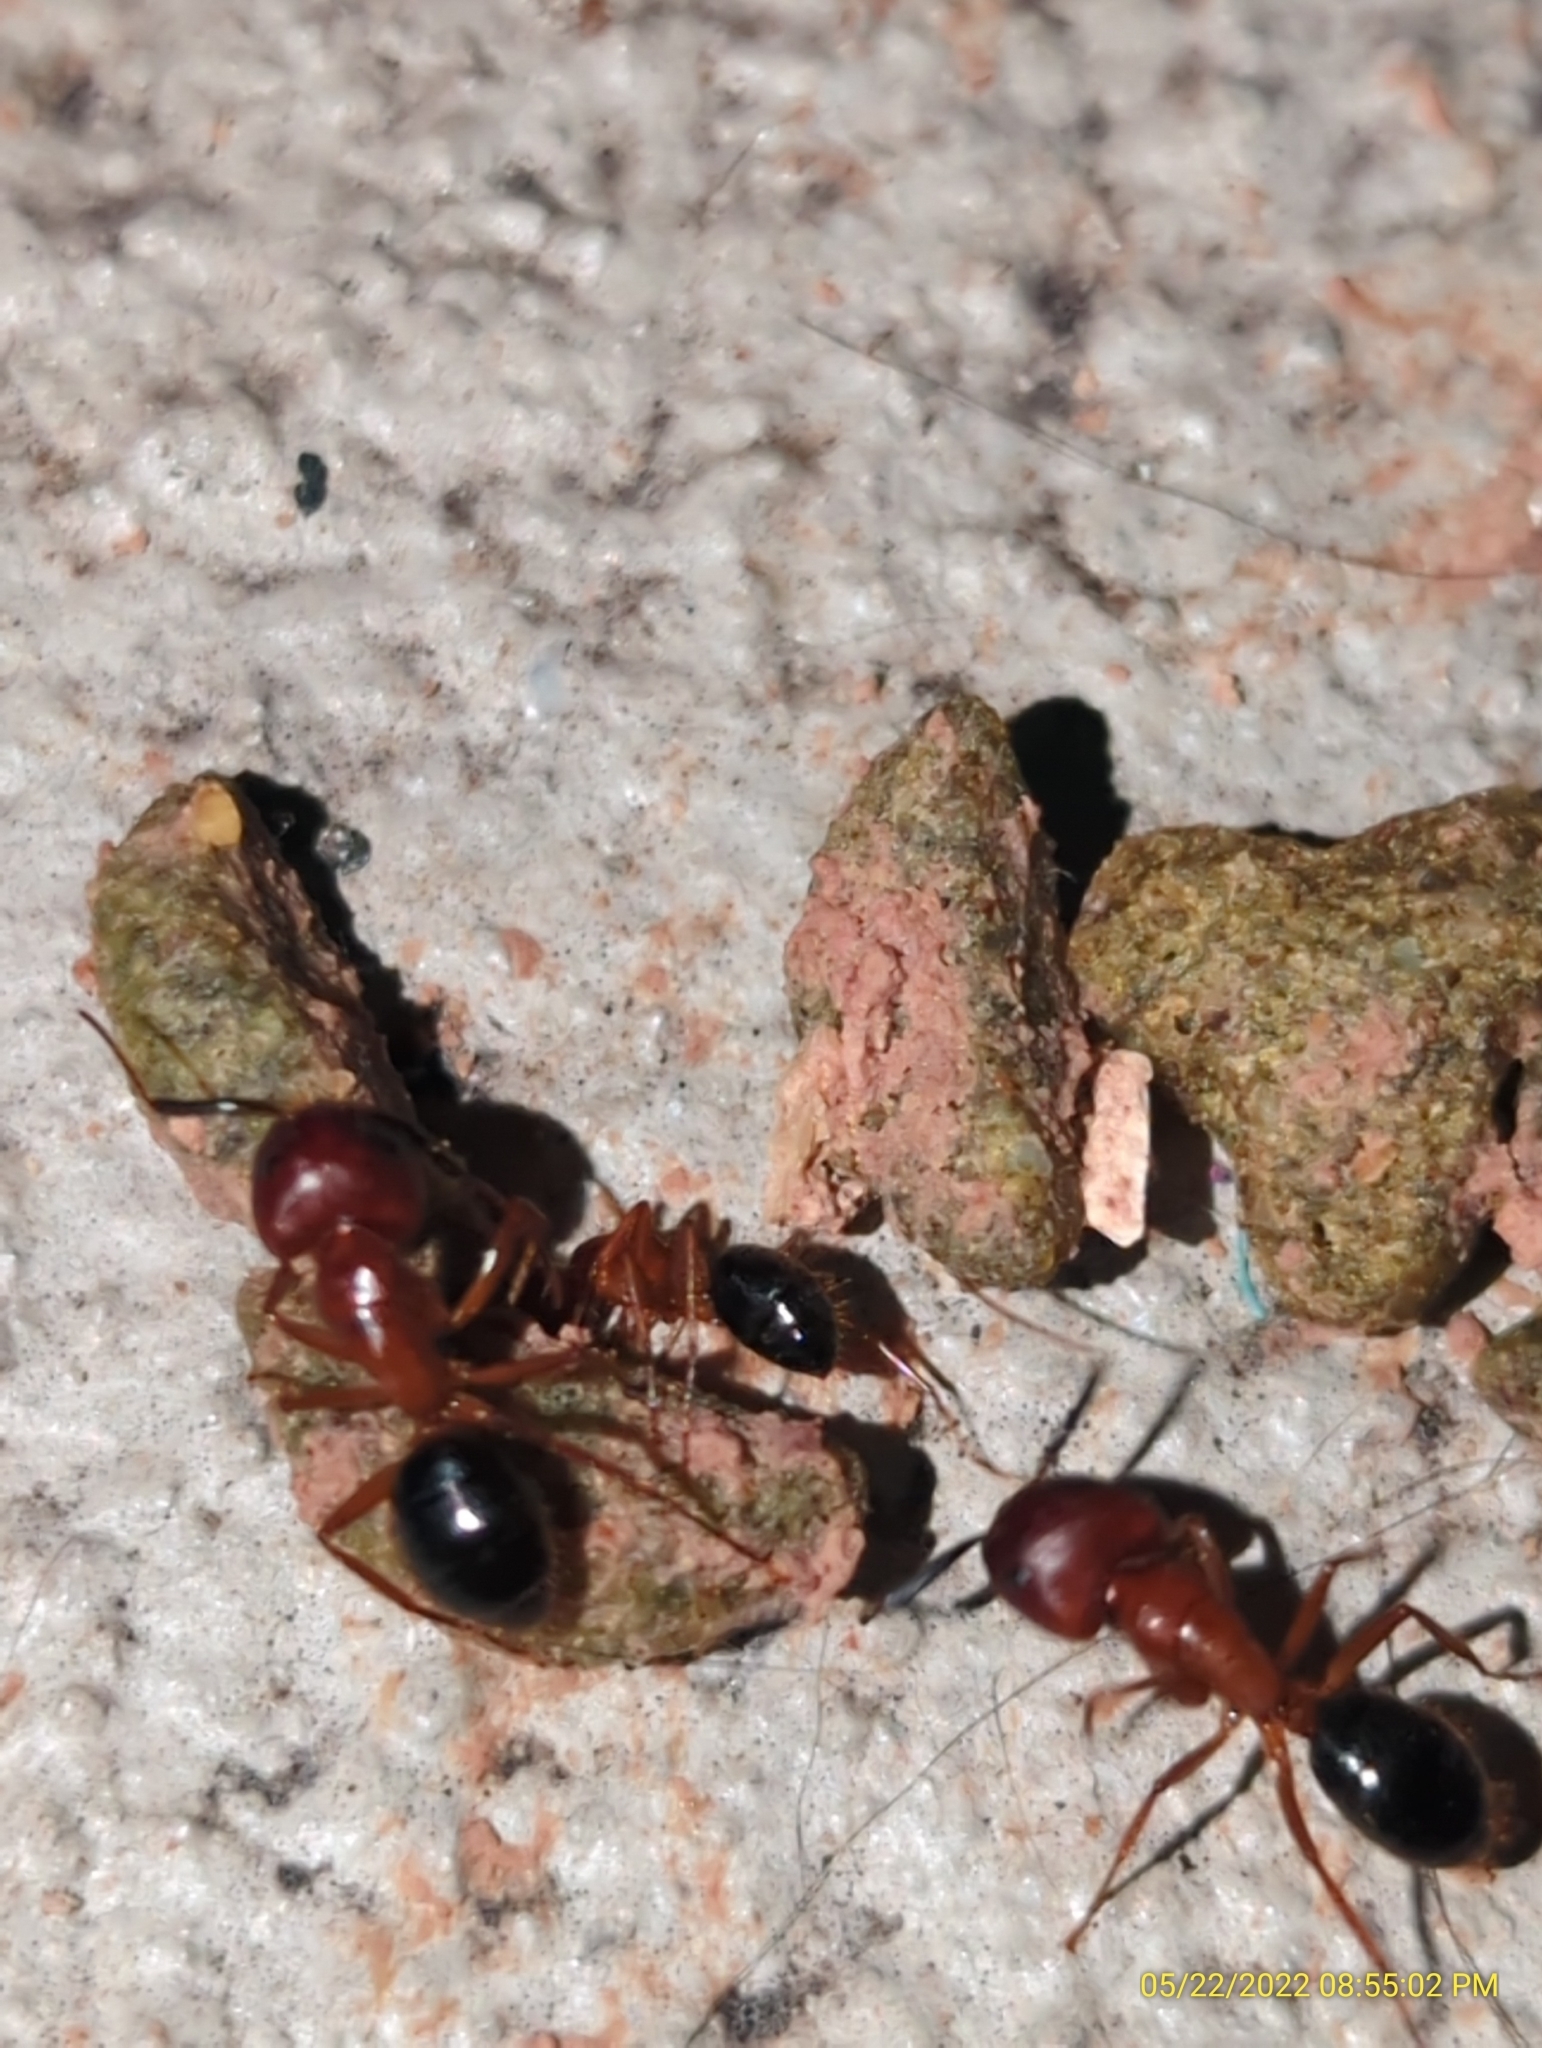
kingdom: Animalia
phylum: Arthropoda
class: Insecta
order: Hymenoptera
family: Formicidae
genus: Camponotus
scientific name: Camponotus floridanus
